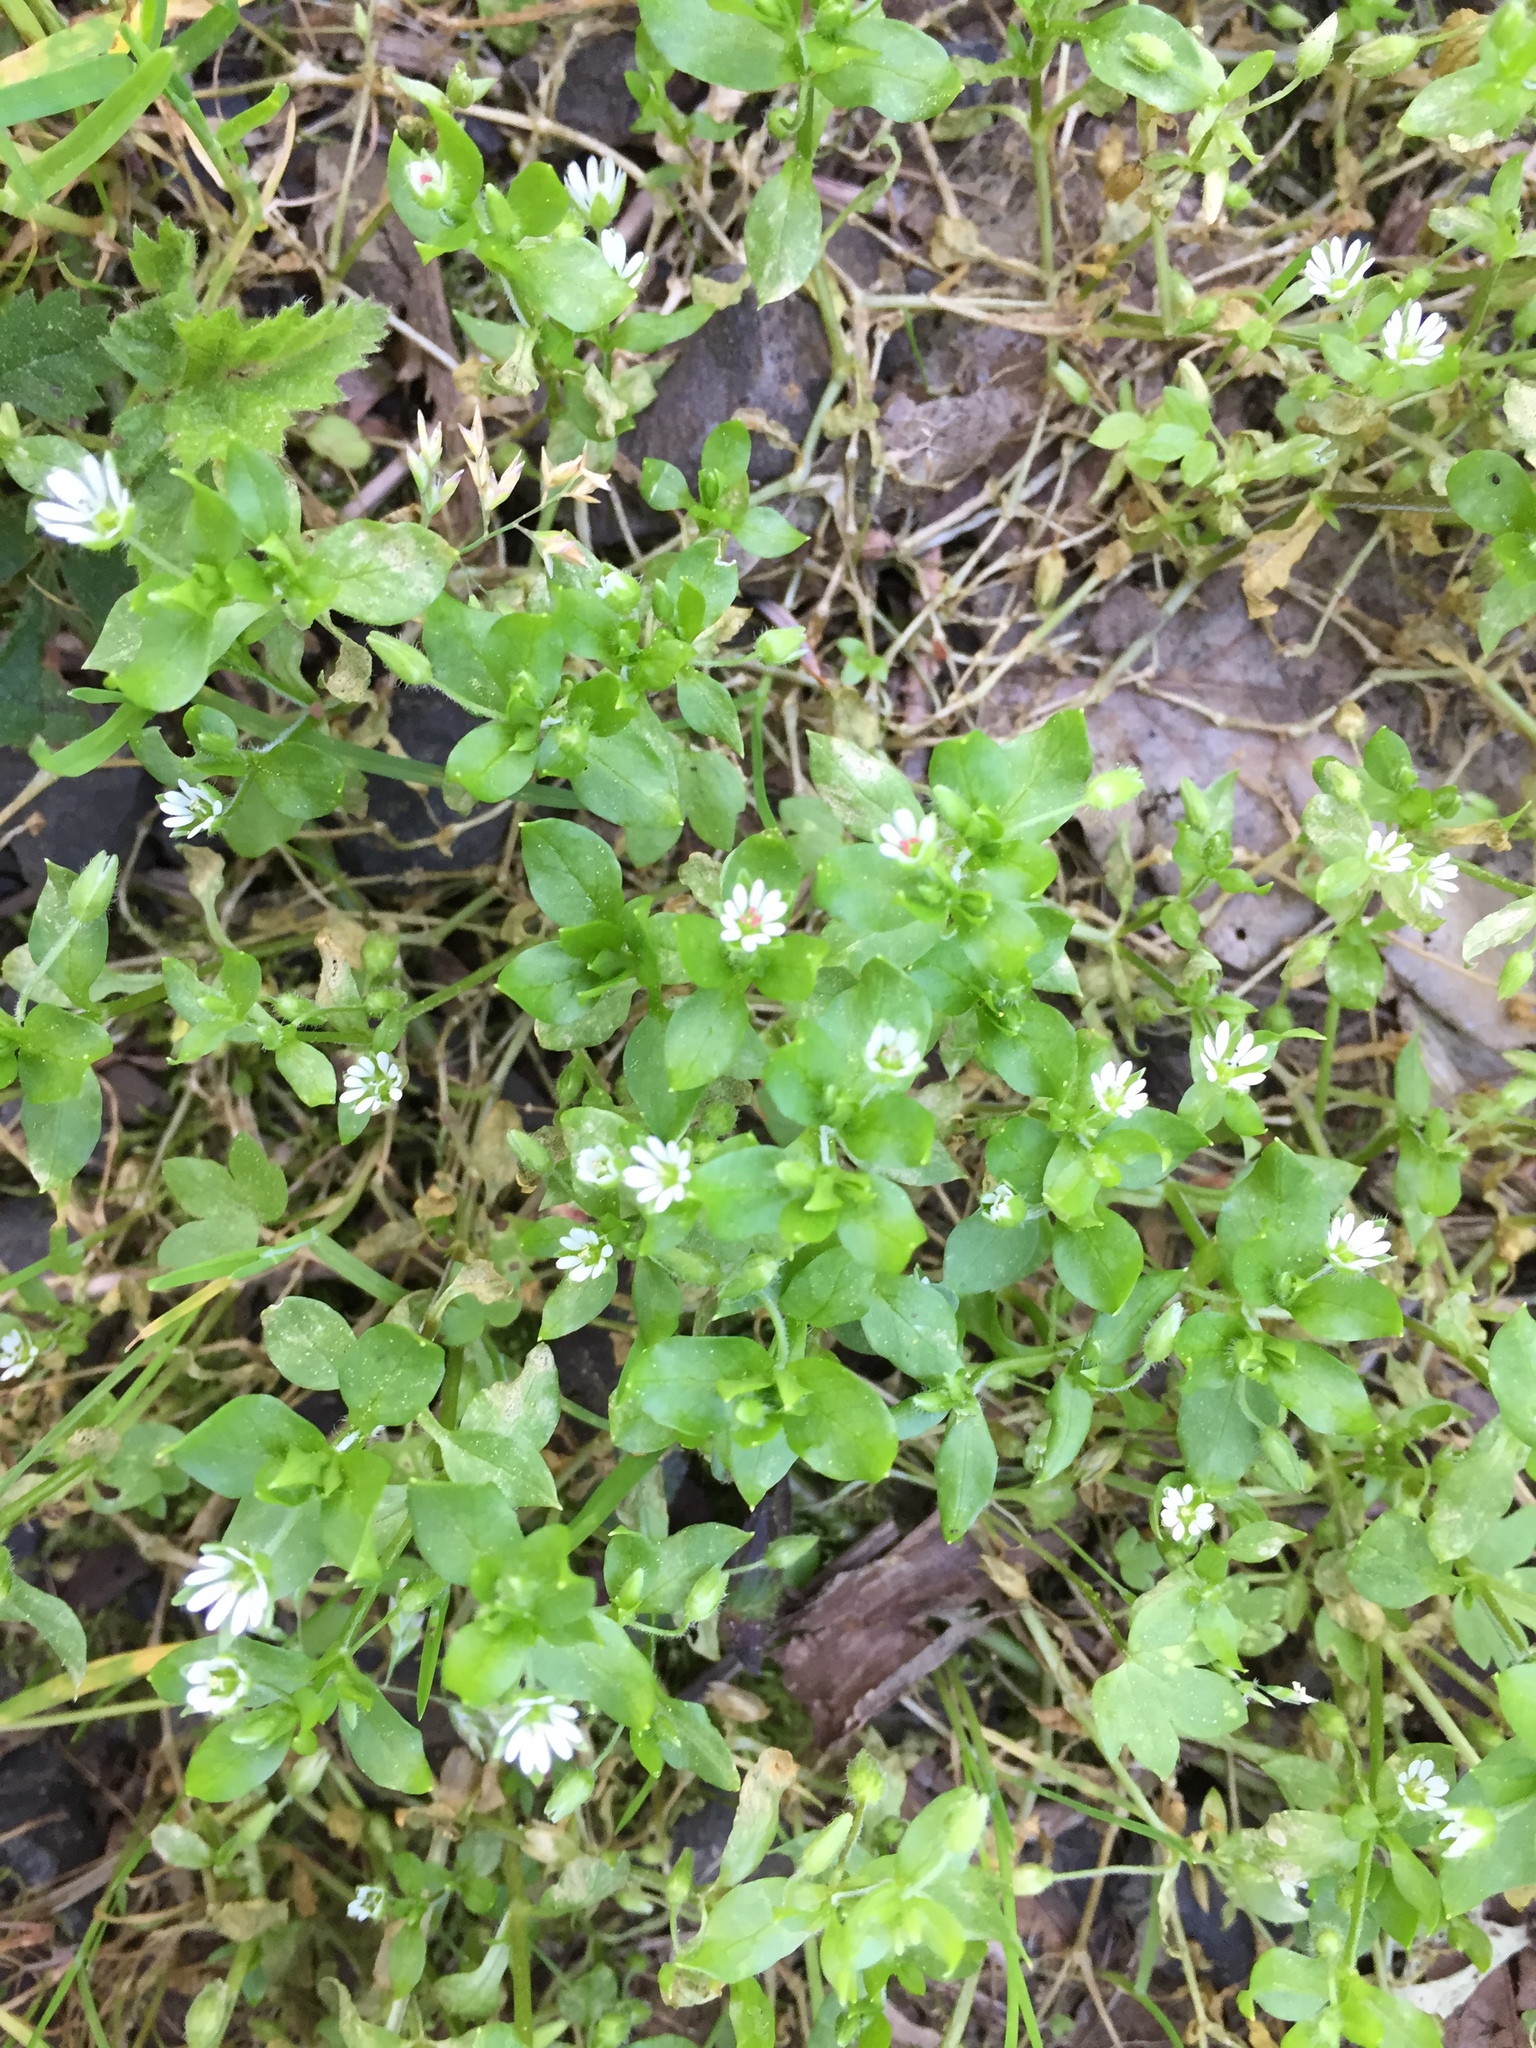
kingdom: Plantae
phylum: Tracheophyta
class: Magnoliopsida
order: Caryophyllales
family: Caryophyllaceae
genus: Stellaria
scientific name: Stellaria media
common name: Common chickweed
